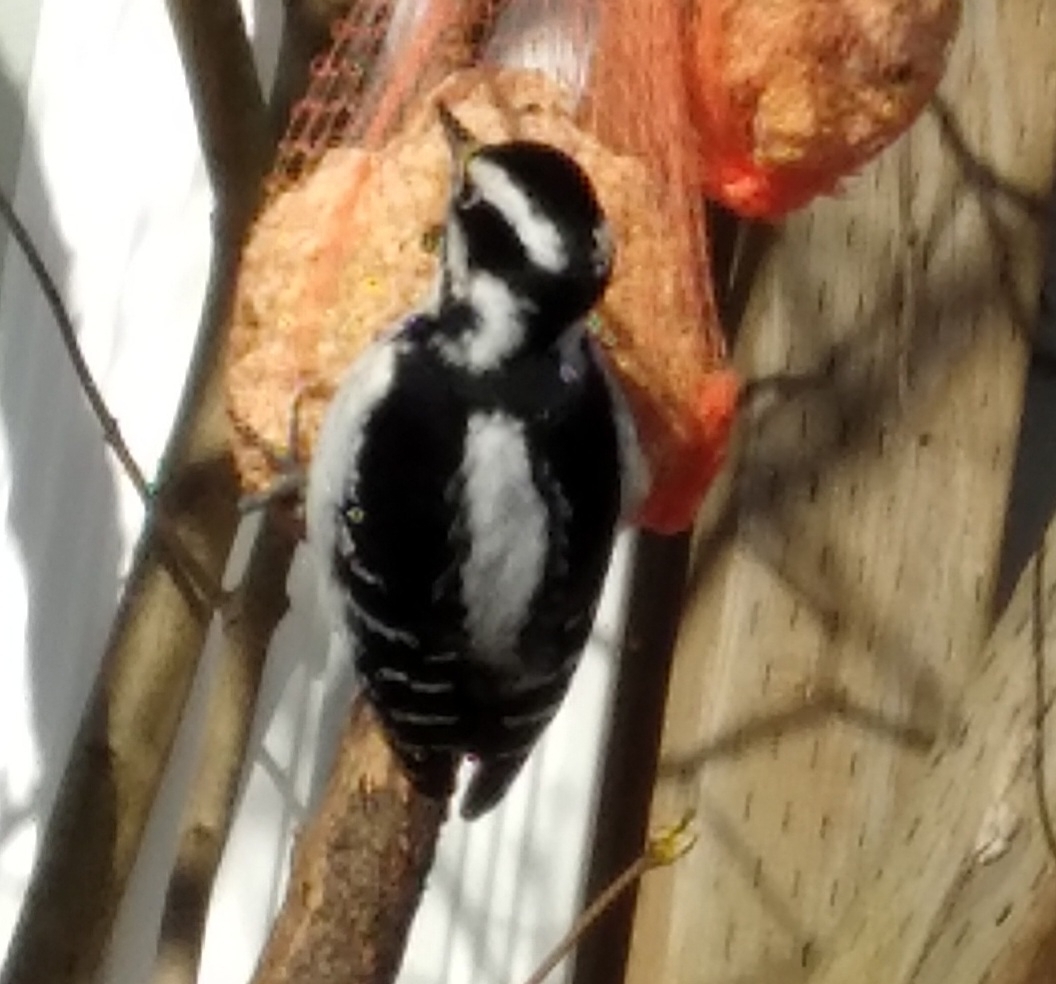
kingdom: Animalia
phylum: Chordata
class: Aves
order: Piciformes
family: Picidae
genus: Leuconotopicus
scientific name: Leuconotopicus villosus
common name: Hairy woodpecker
